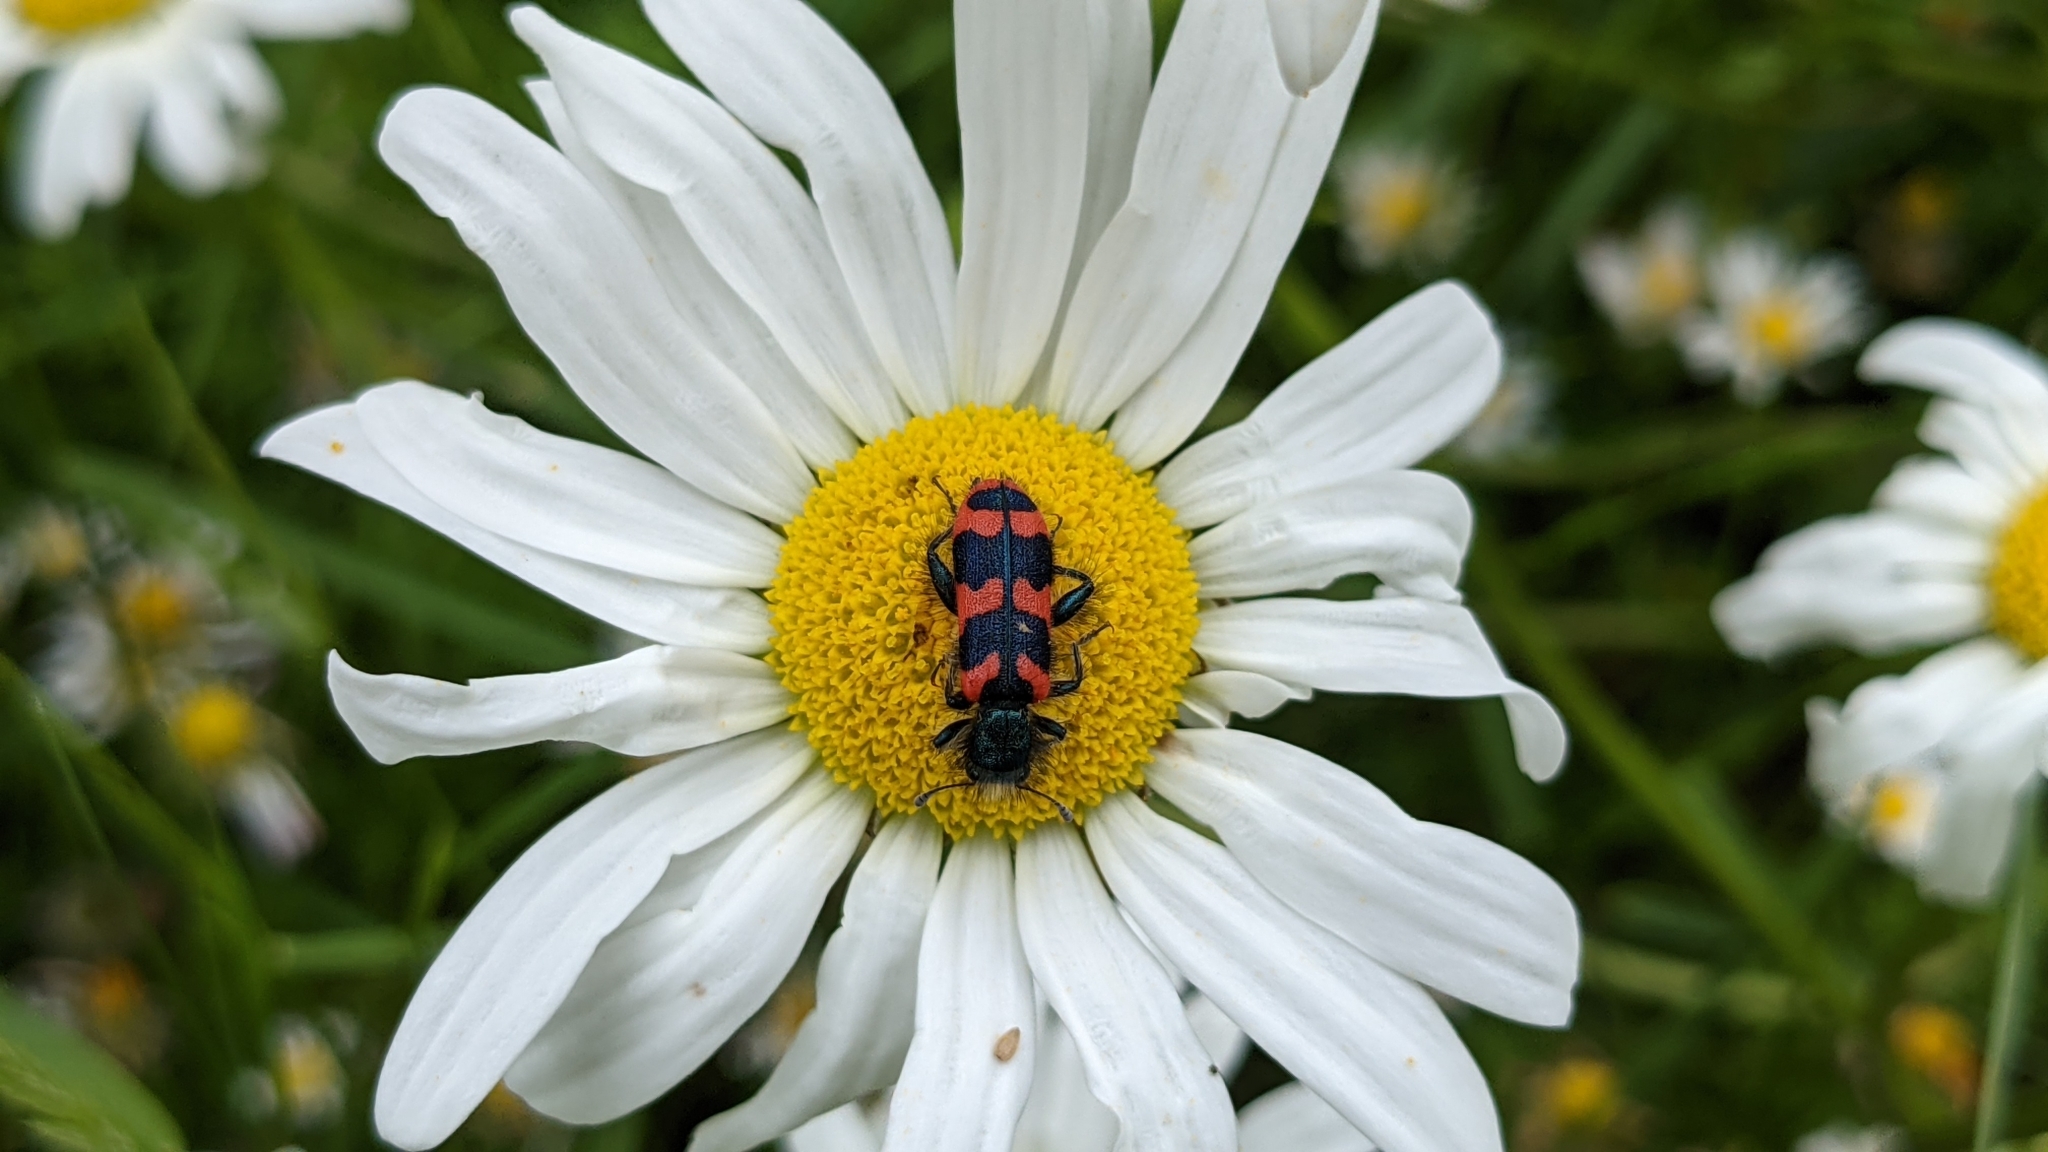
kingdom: Animalia
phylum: Arthropoda
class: Insecta
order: Coleoptera
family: Cleridae
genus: Trichodes
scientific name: Trichodes alvearius
